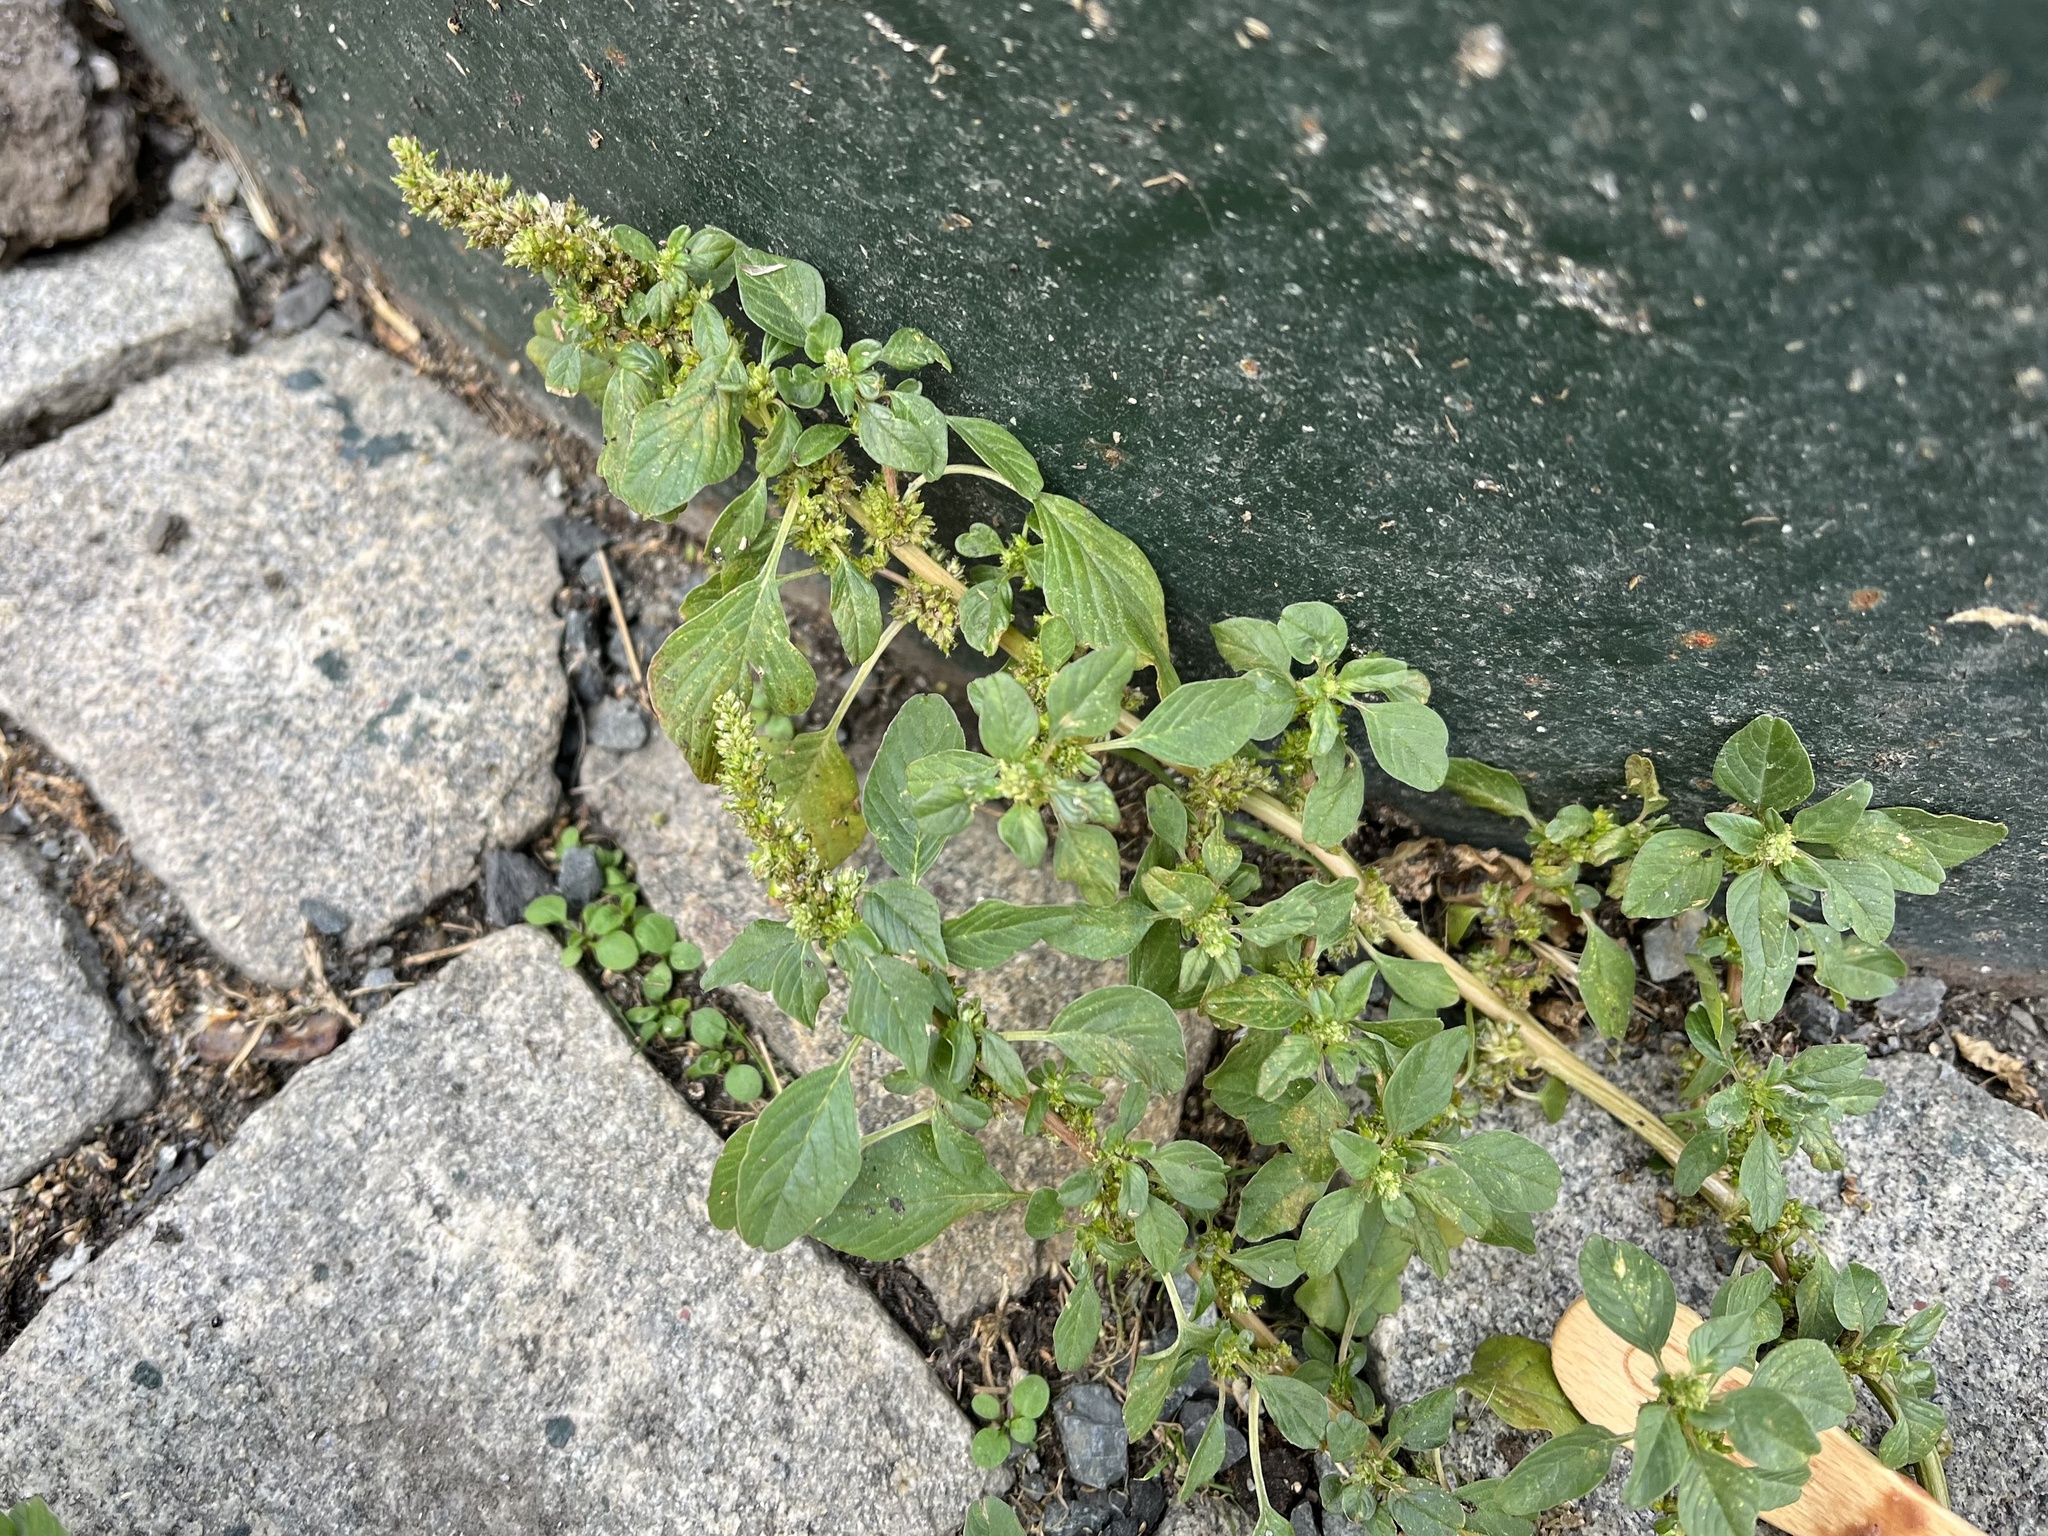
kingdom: Plantae
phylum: Tracheophyta
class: Magnoliopsida
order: Caryophyllales
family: Amaranthaceae
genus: Amaranthus
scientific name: Amaranthus blitum
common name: Purple amaranth
